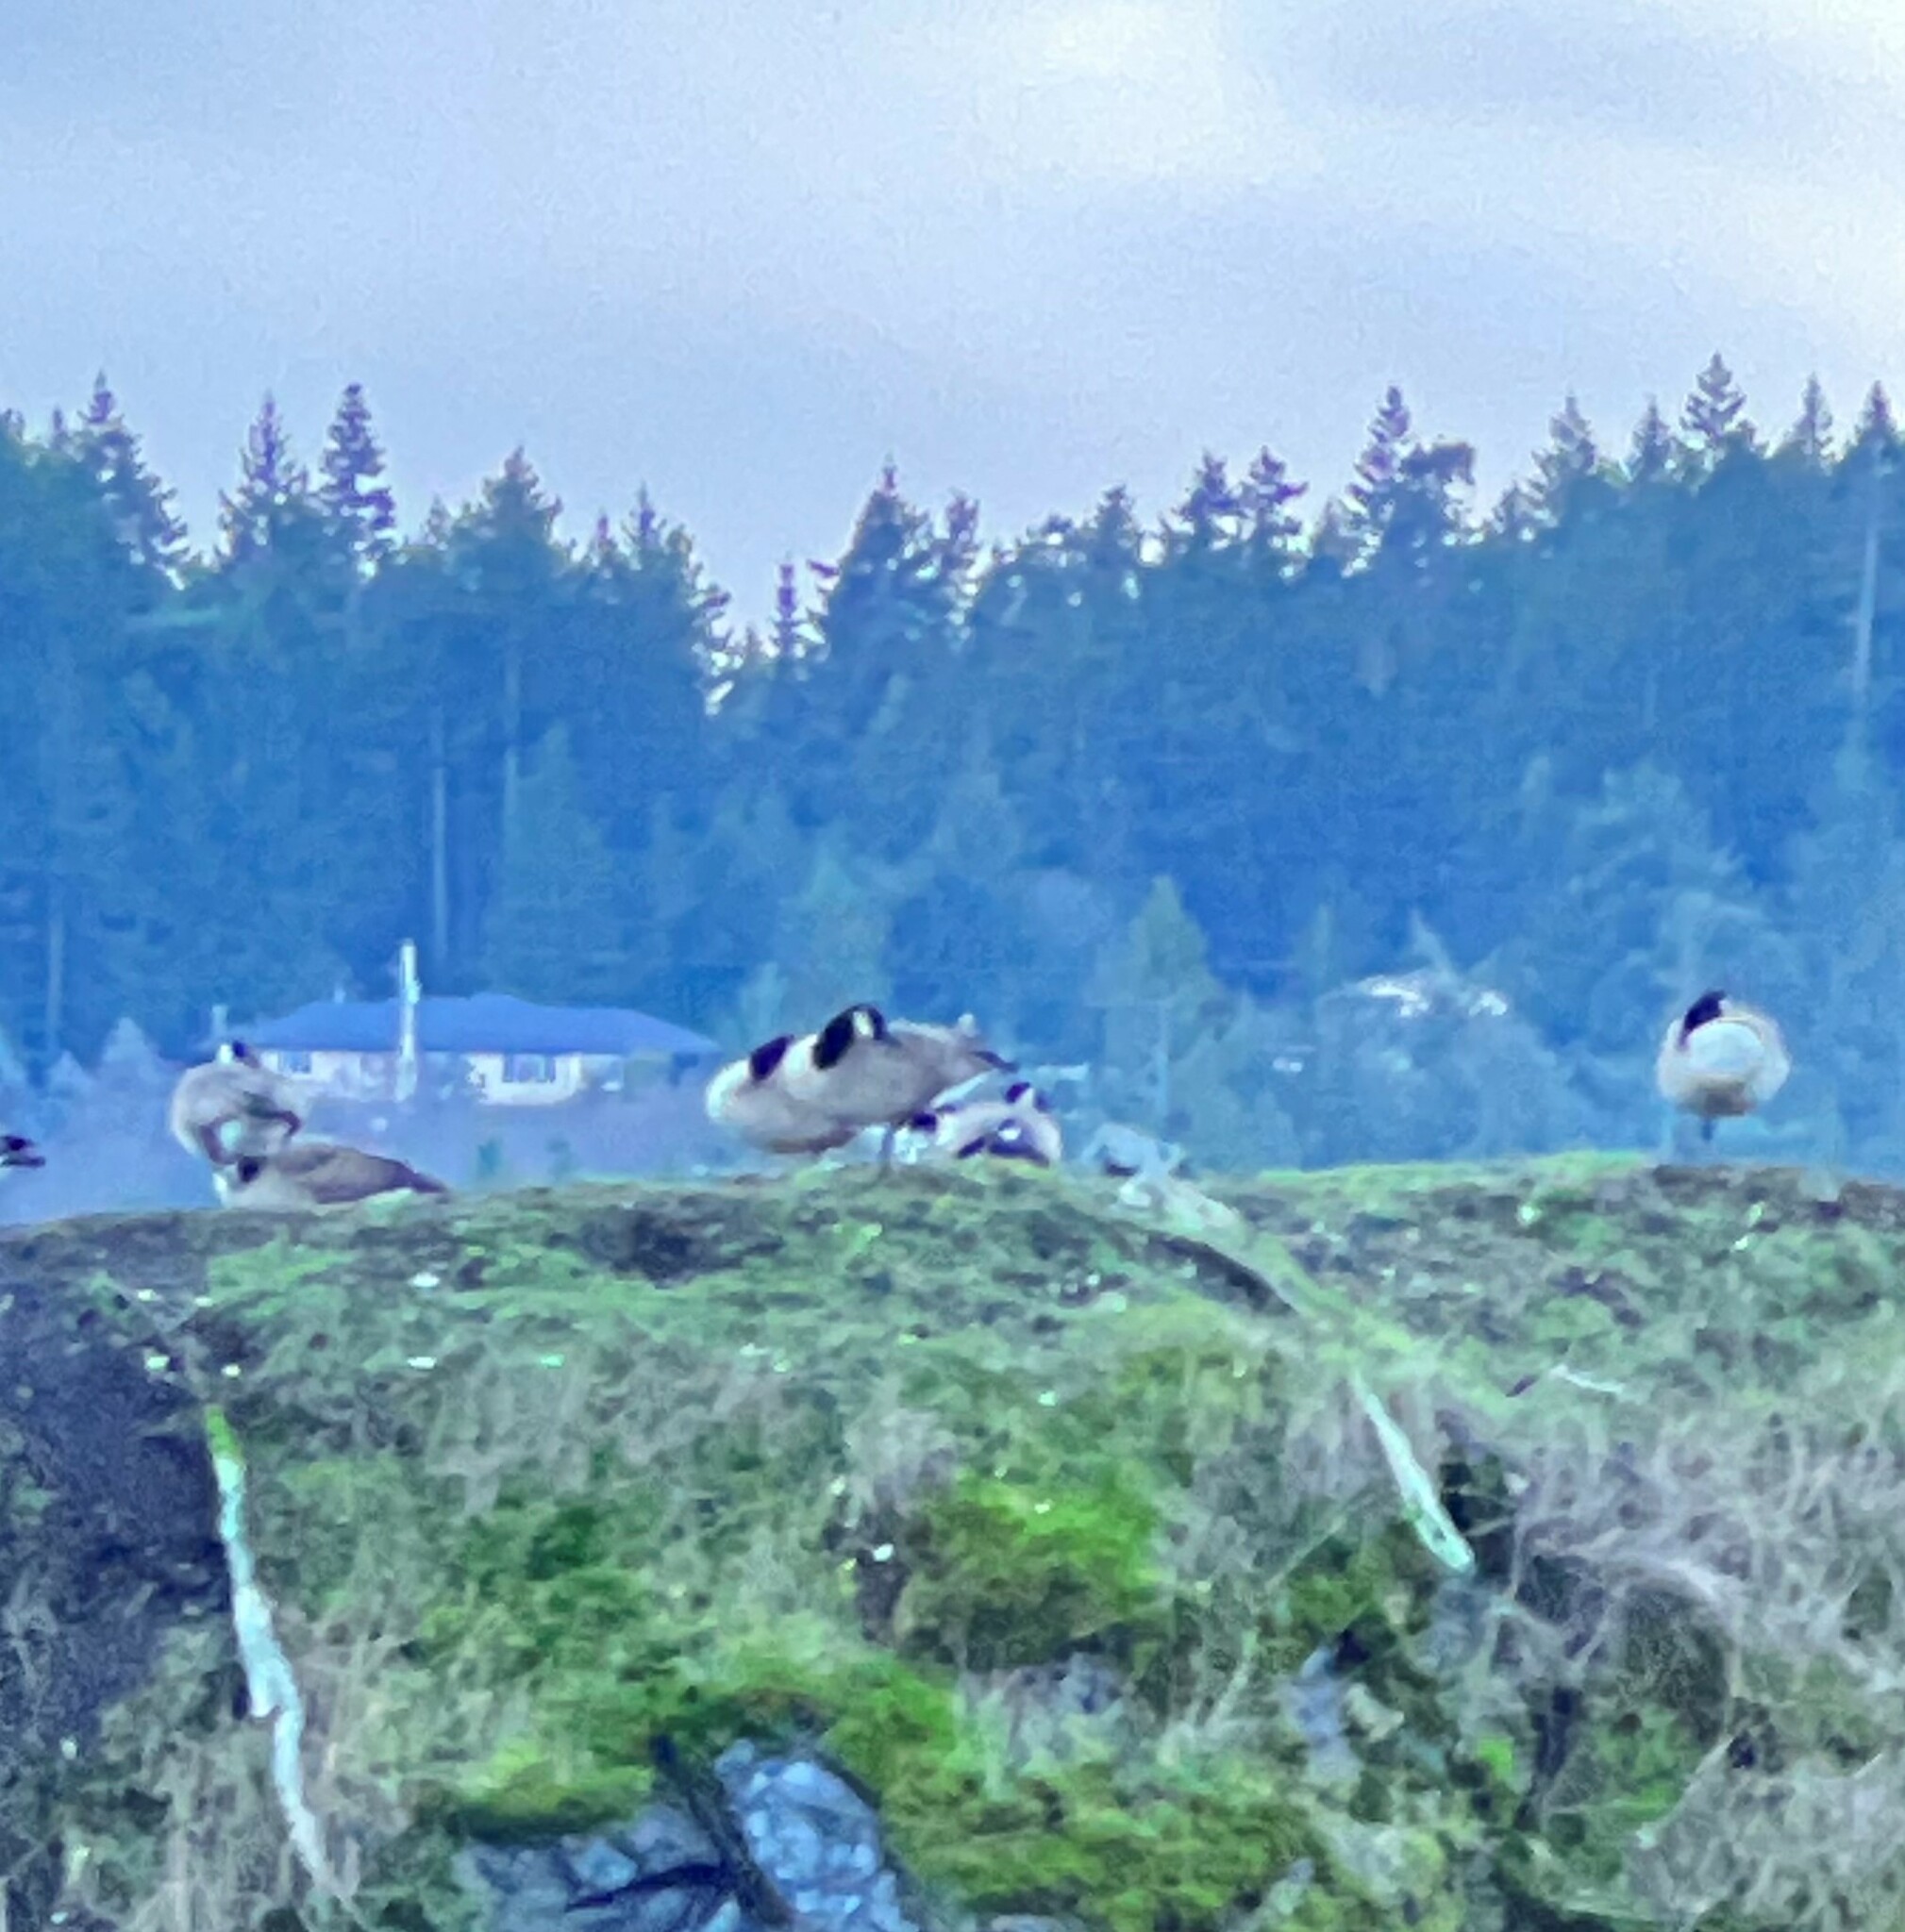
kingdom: Animalia
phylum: Chordata
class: Aves
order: Anseriformes
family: Anatidae
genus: Branta
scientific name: Branta canadensis
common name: Canada goose
